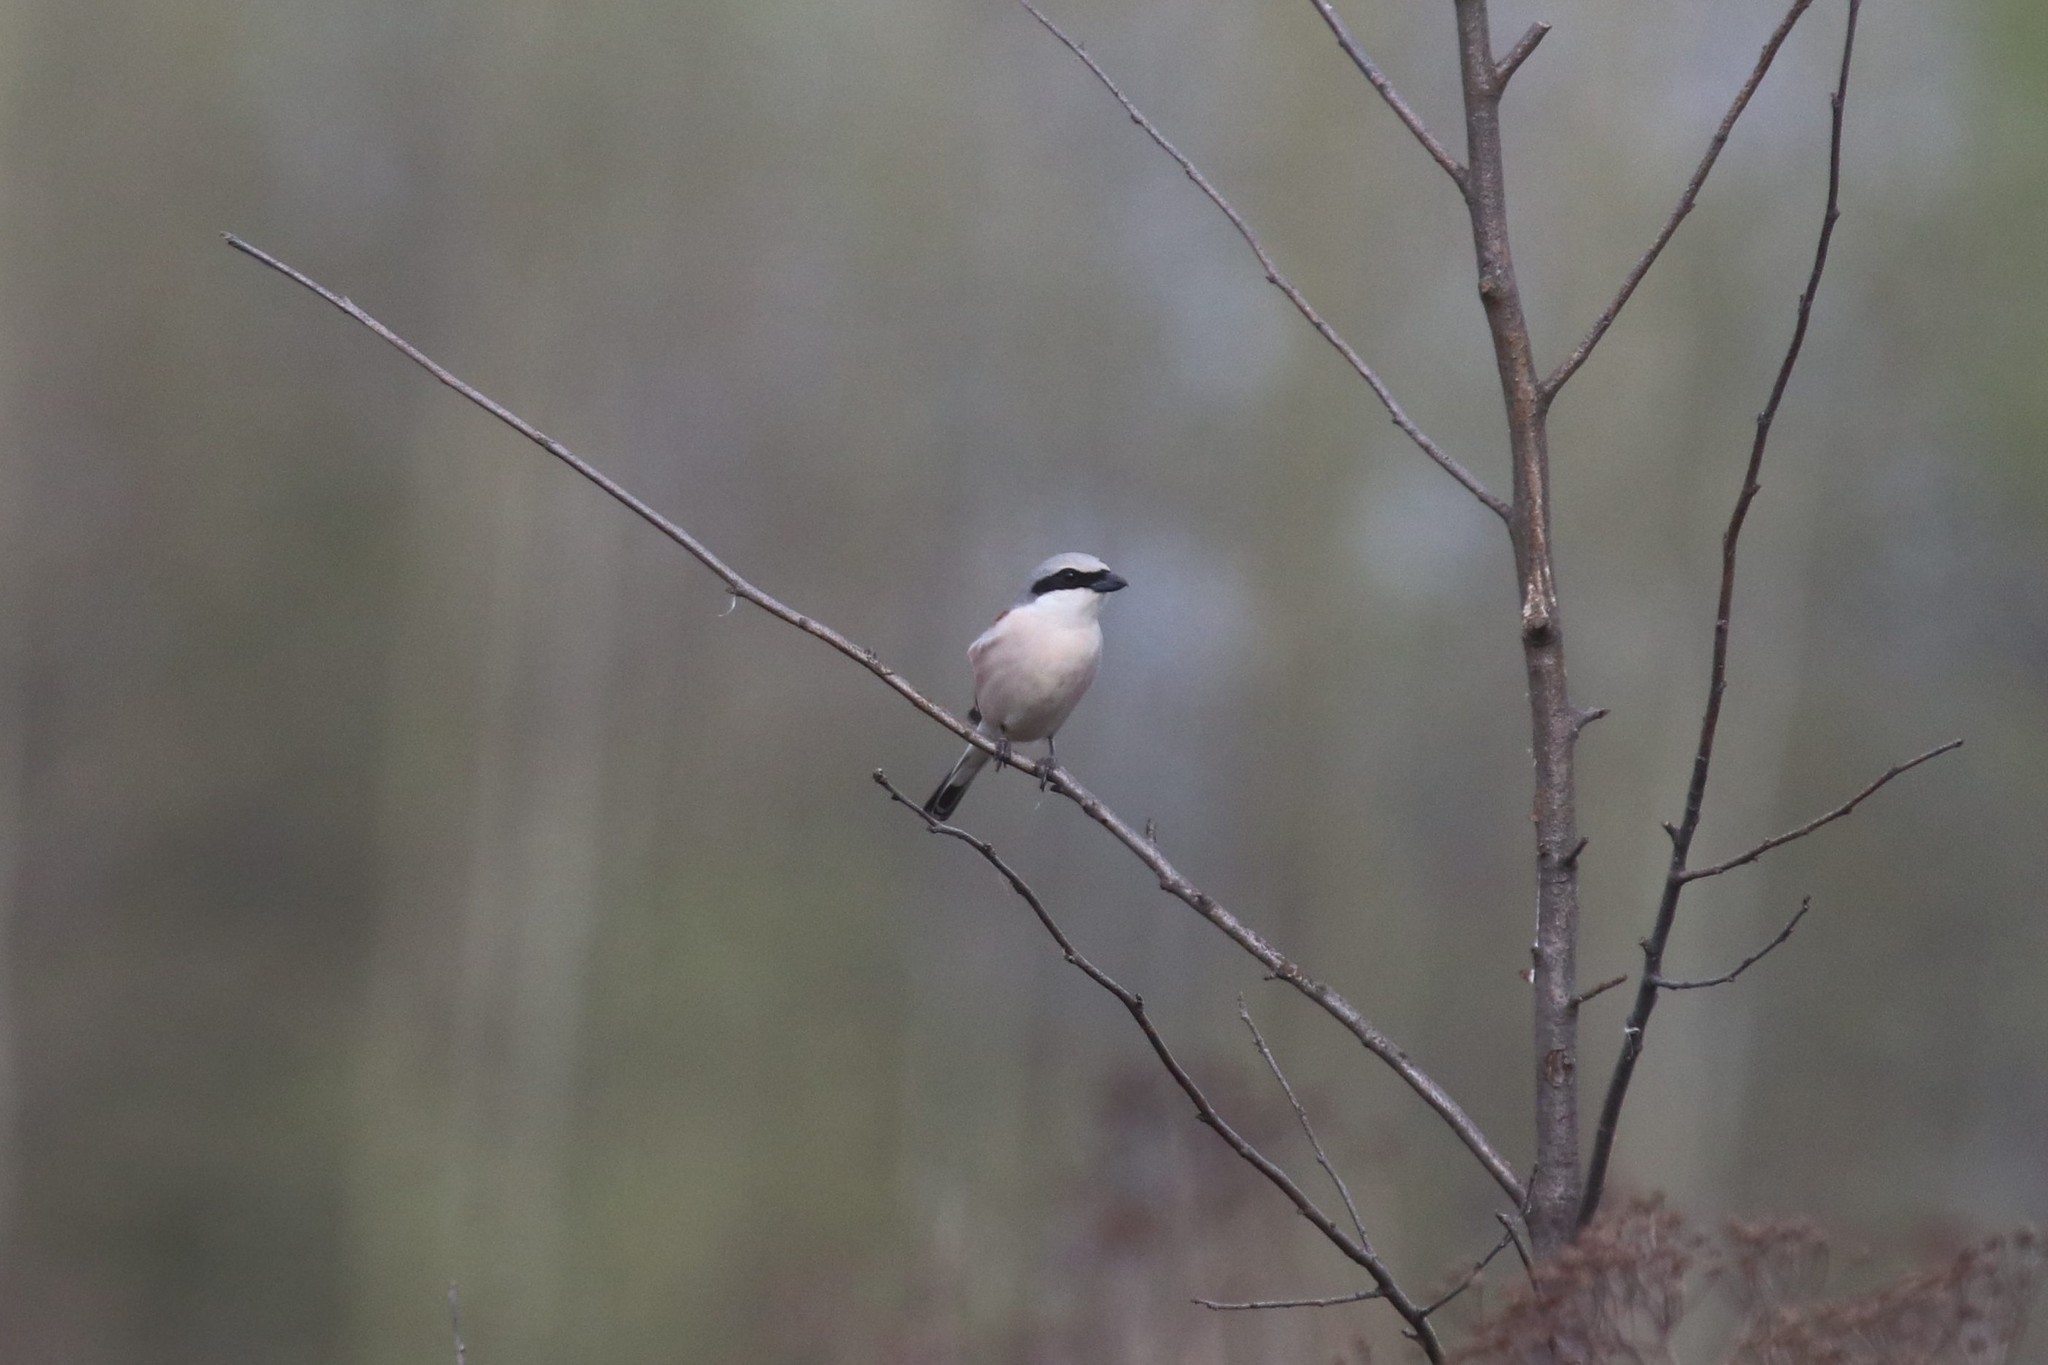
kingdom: Animalia
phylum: Chordata
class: Aves
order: Passeriformes
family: Laniidae
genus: Lanius
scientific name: Lanius collurio
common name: Red-backed shrike
